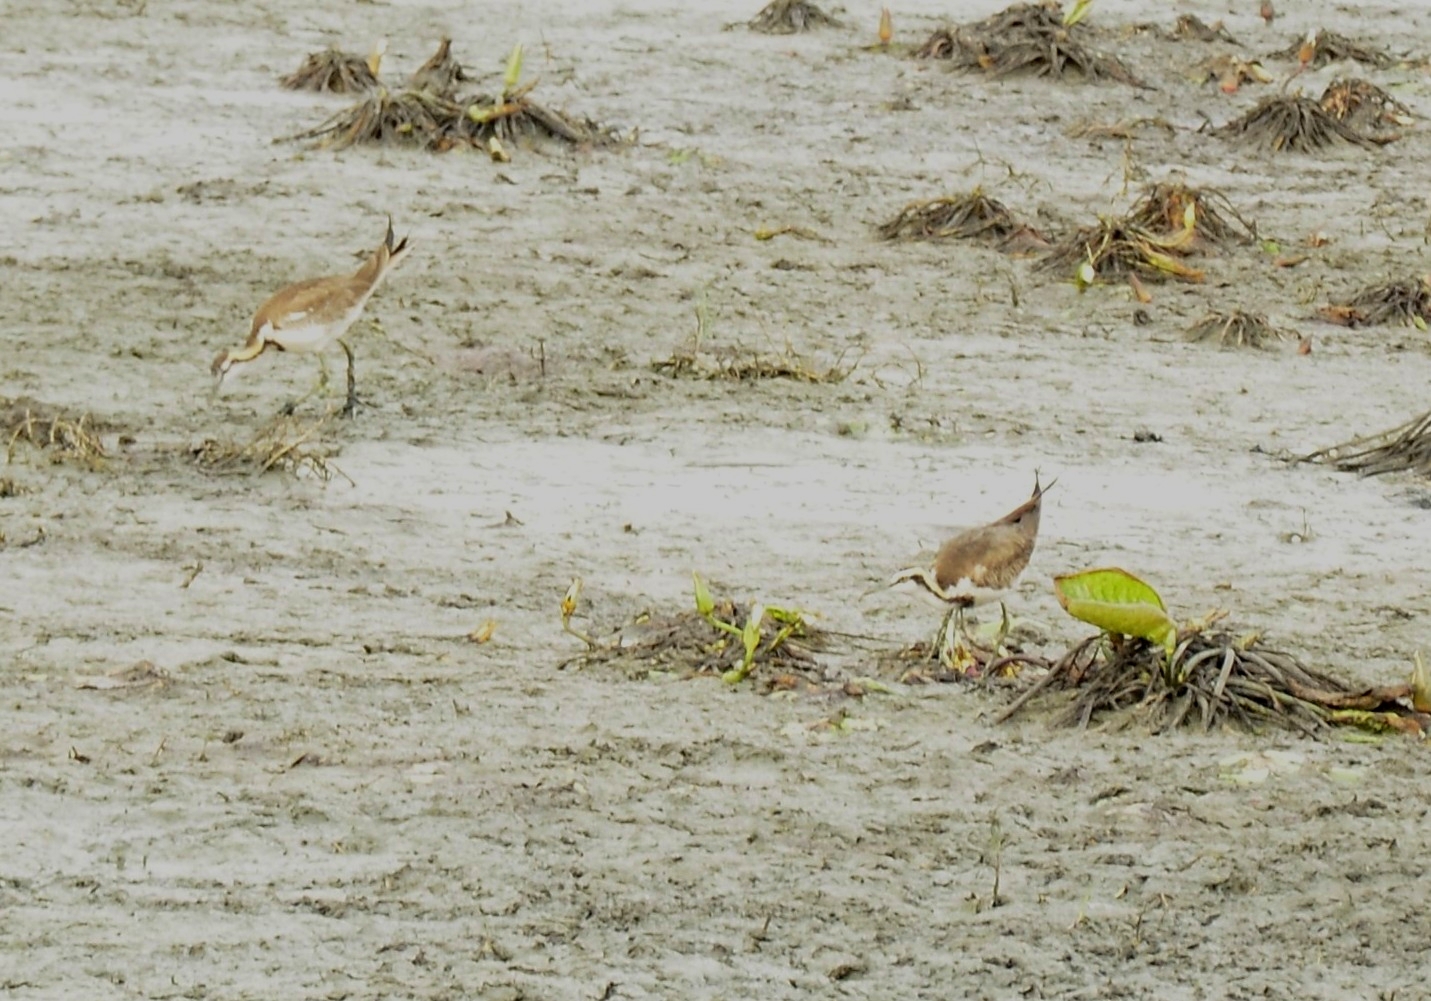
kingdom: Animalia
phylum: Chordata
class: Aves
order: Charadriiformes
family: Jacanidae
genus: Hydrophasianus
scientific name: Hydrophasianus chirurgus
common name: Pheasant-tailed jacana
